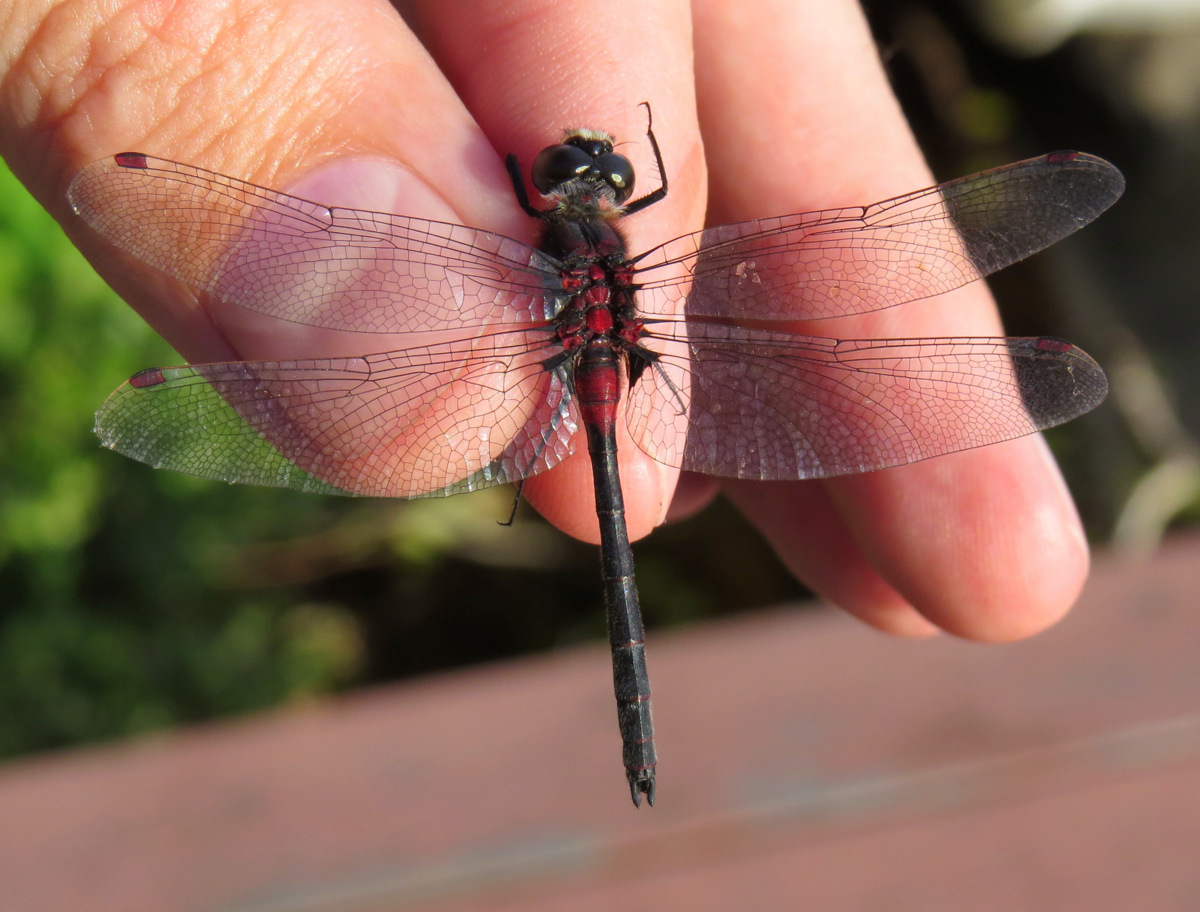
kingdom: Animalia
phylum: Arthropoda
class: Insecta
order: Odonata
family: Libellulidae
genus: Leucorrhinia
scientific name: Leucorrhinia glacialis
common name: Crimson-ringed whiteface
